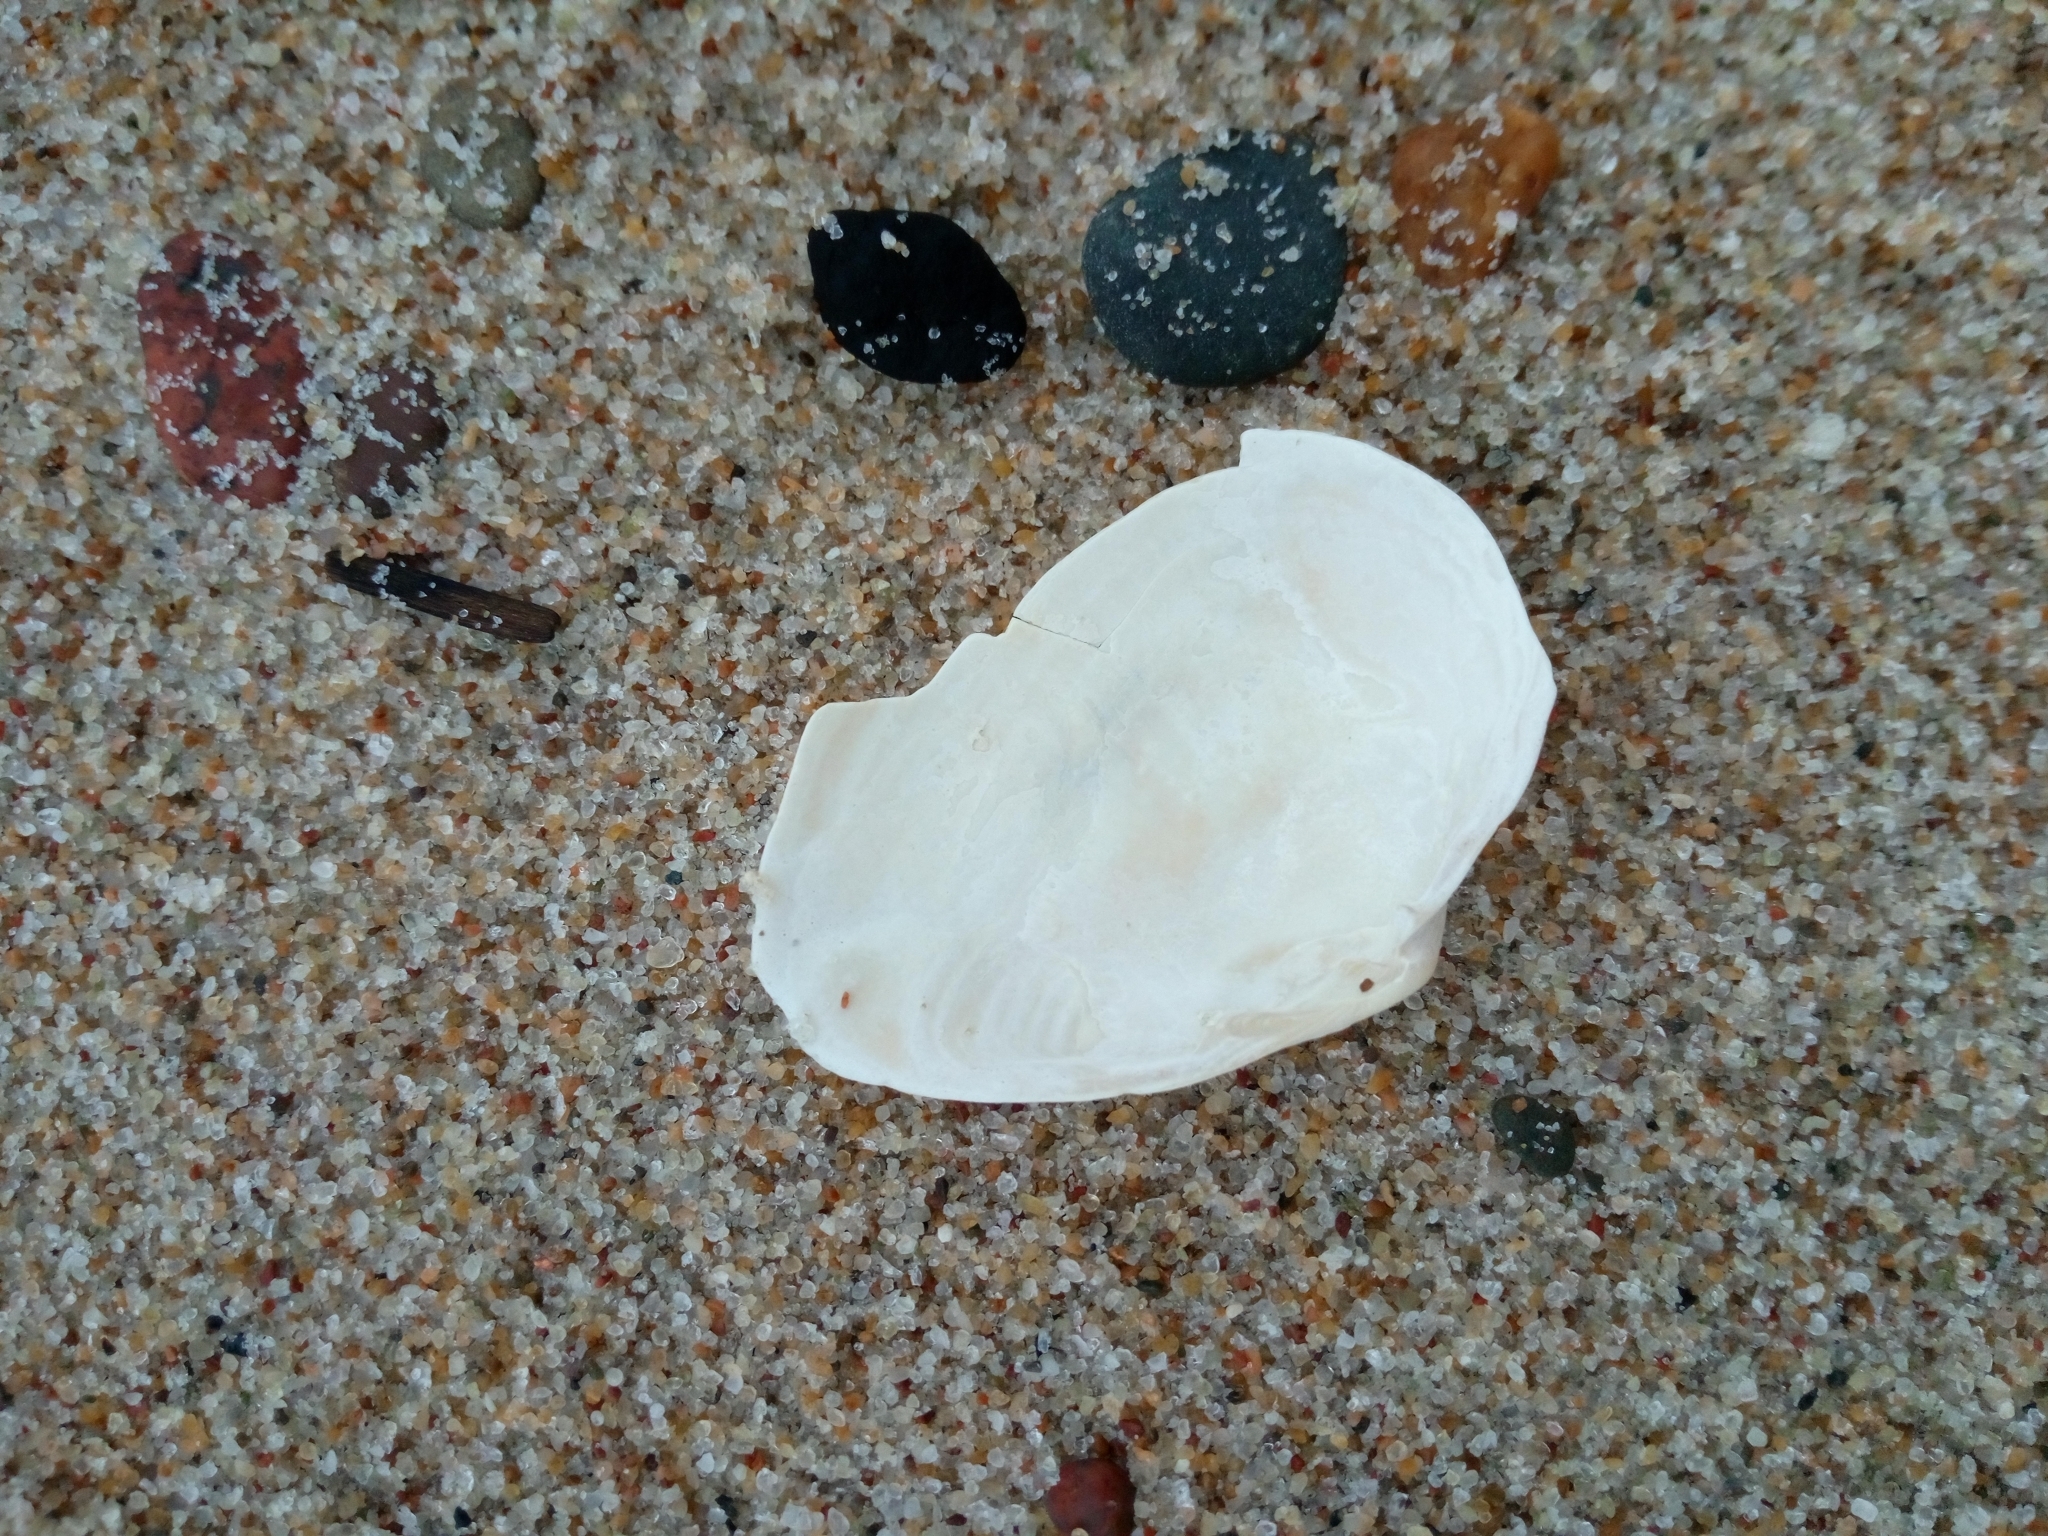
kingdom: Animalia
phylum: Mollusca
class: Bivalvia
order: Myida
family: Myidae
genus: Mya
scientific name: Mya arenaria
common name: Soft-shelled clam
